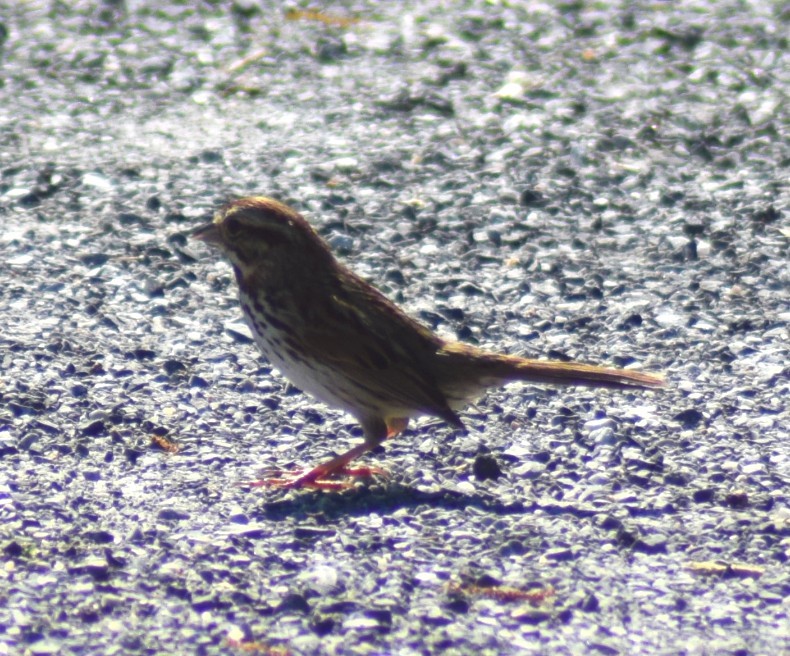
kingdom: Animalia
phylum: Chordata
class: Aves
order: Passeriformes
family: Passerellidae
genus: Melospiza
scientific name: Melospiza melodia
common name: Song sparrow
